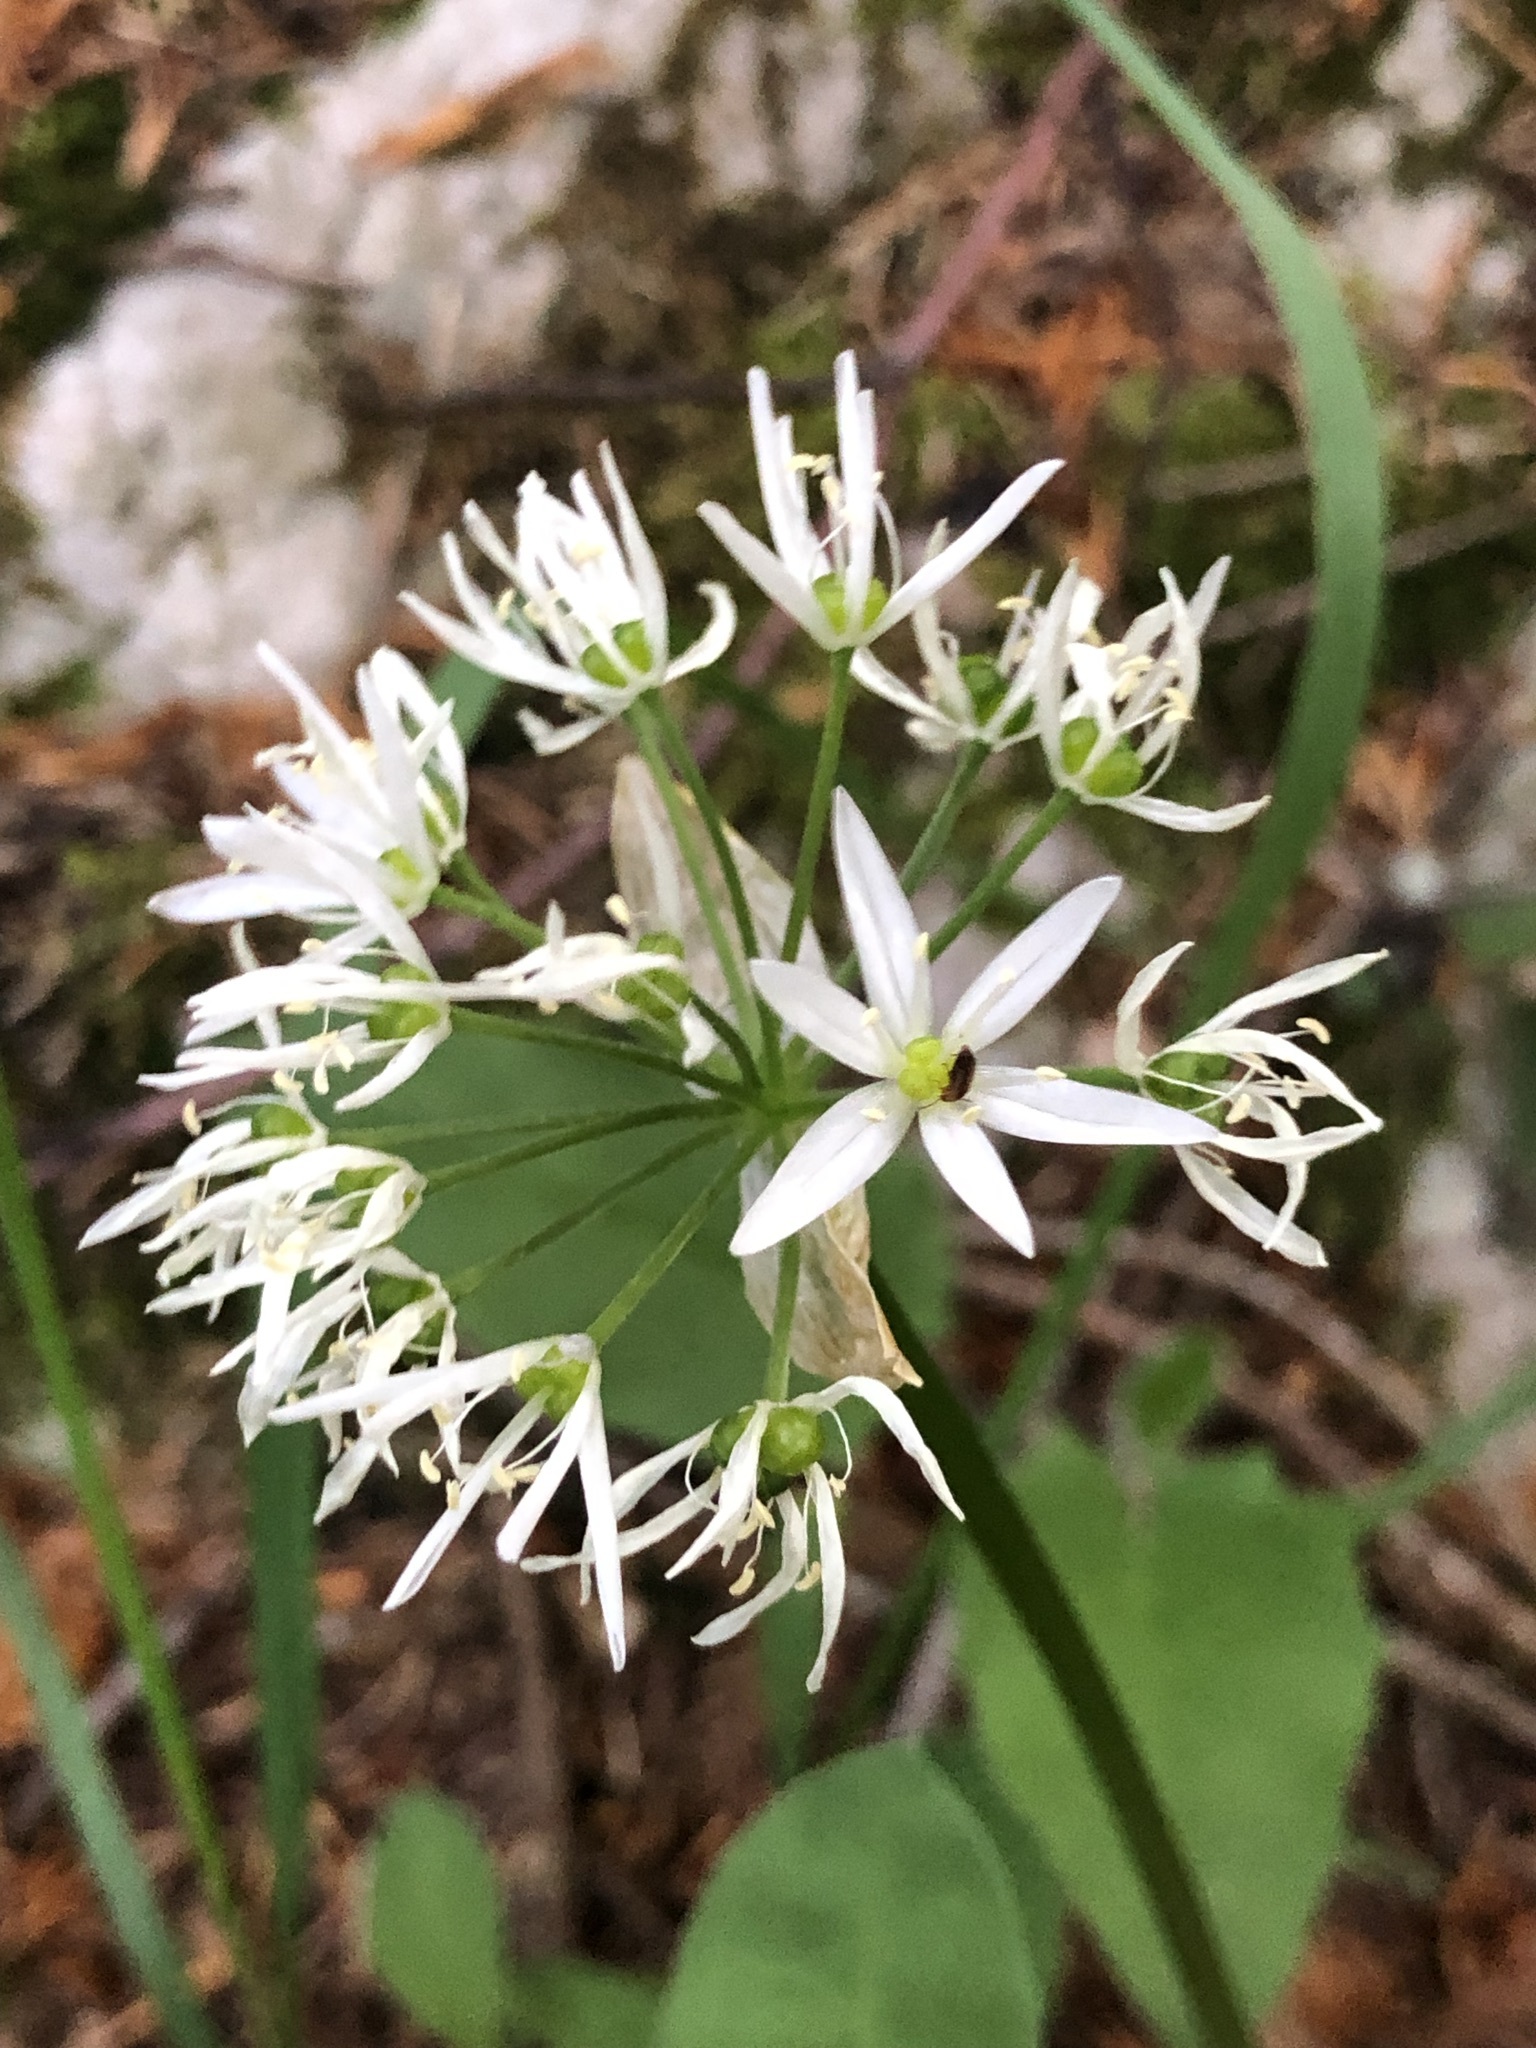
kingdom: Plantae
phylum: Tracheophyta
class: Liliopsida
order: Asparagales
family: Amaryllidaceae
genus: Allium
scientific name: Allium ursinum
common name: Ramsons
